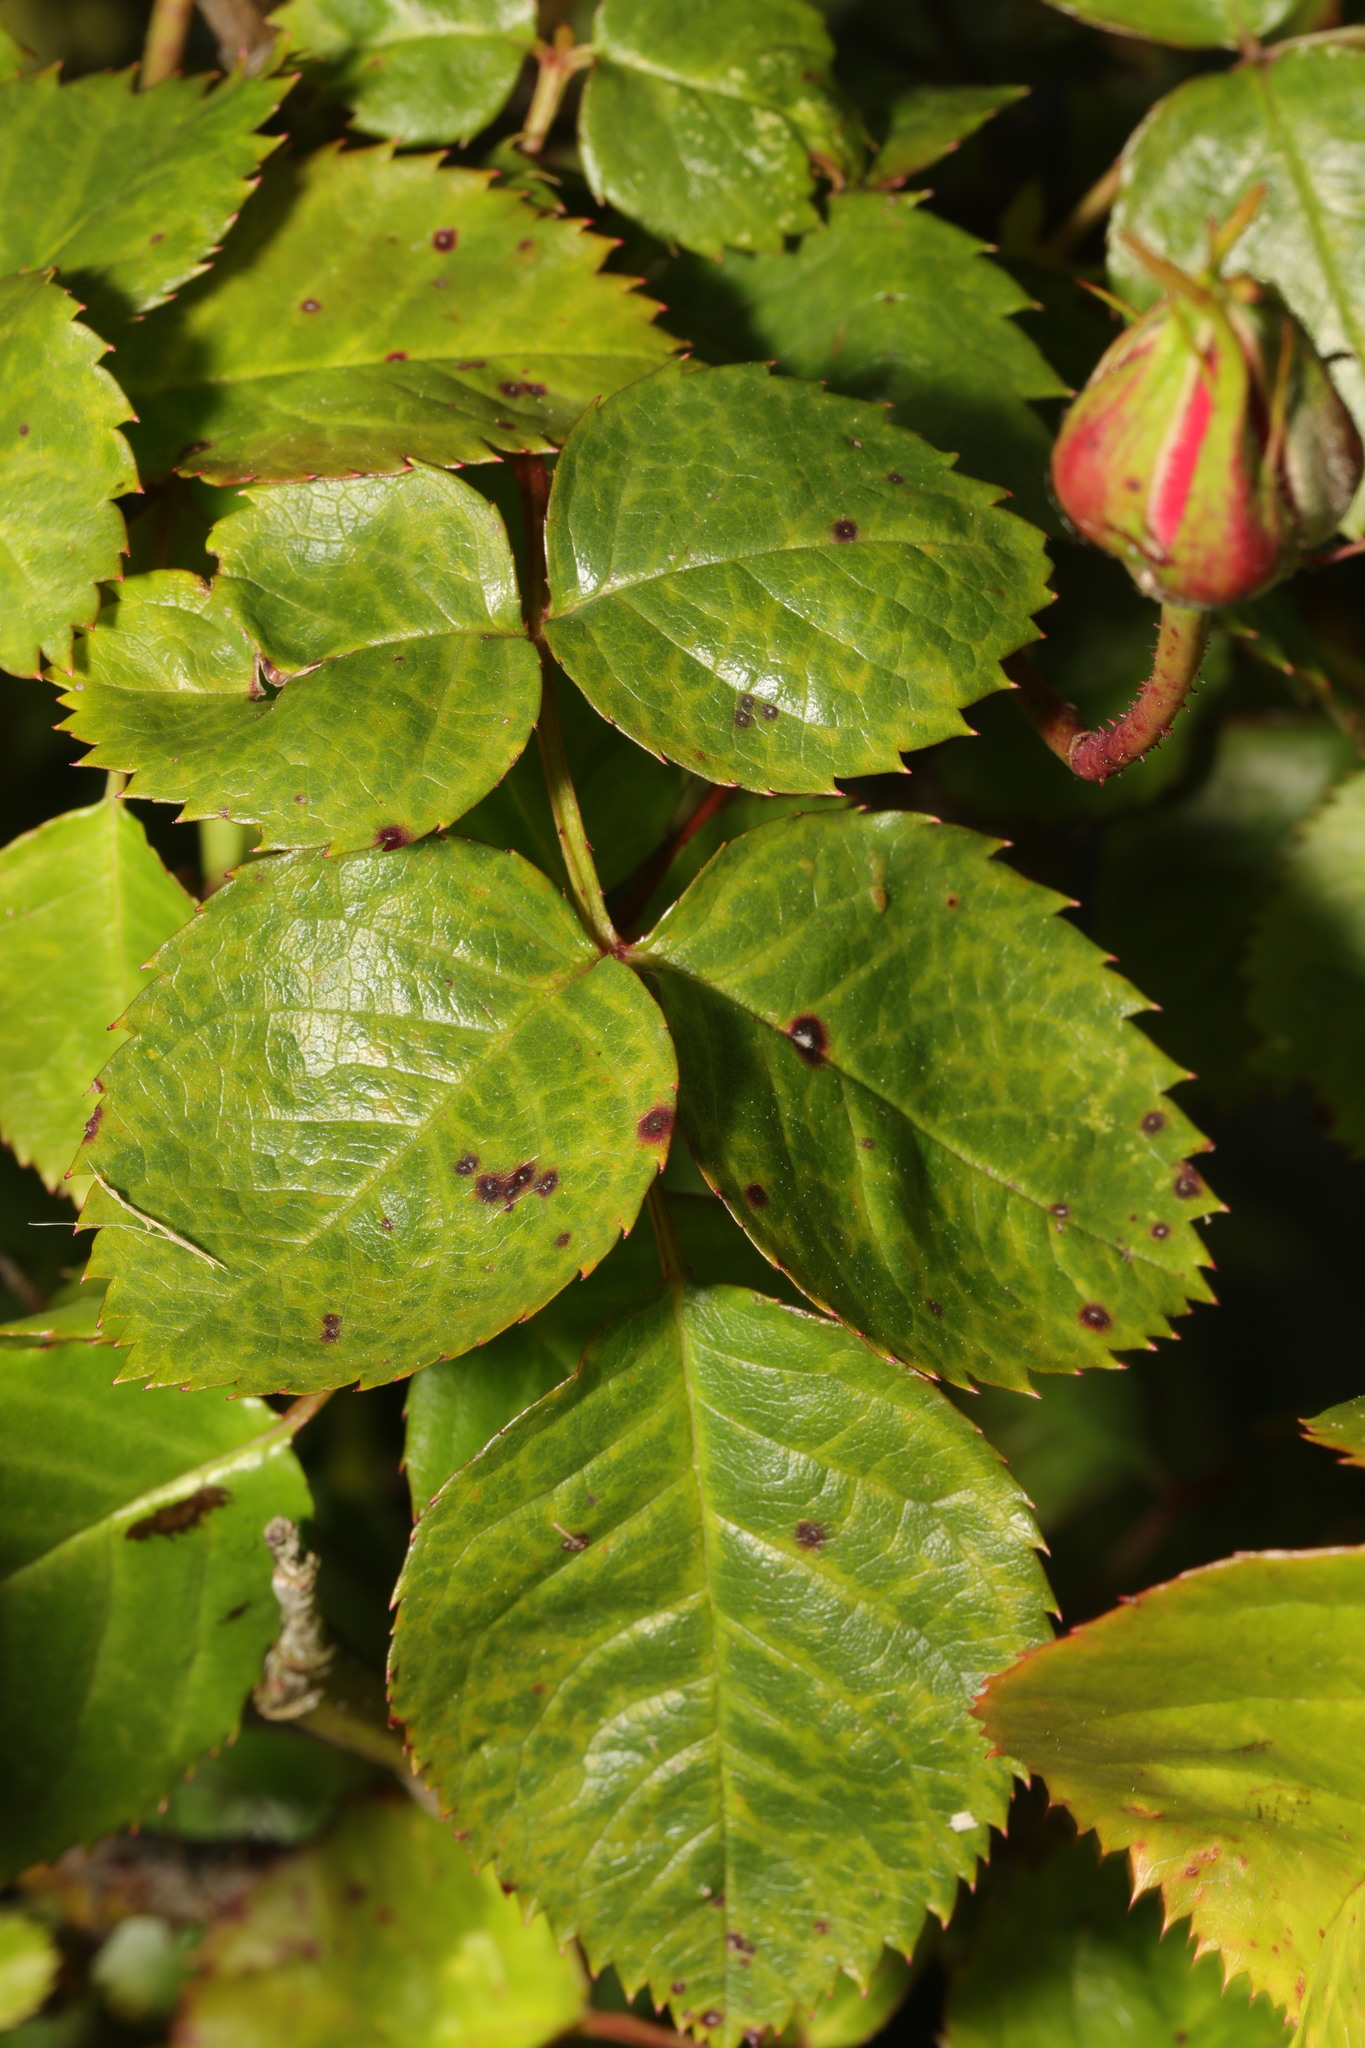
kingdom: Fungi
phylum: Ascomycota
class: Leotiomycetes
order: Helotiales
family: Drepanopezizaceae
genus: Diplocarpon
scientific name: Diplocarpon rosae
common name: Rose black-spot
